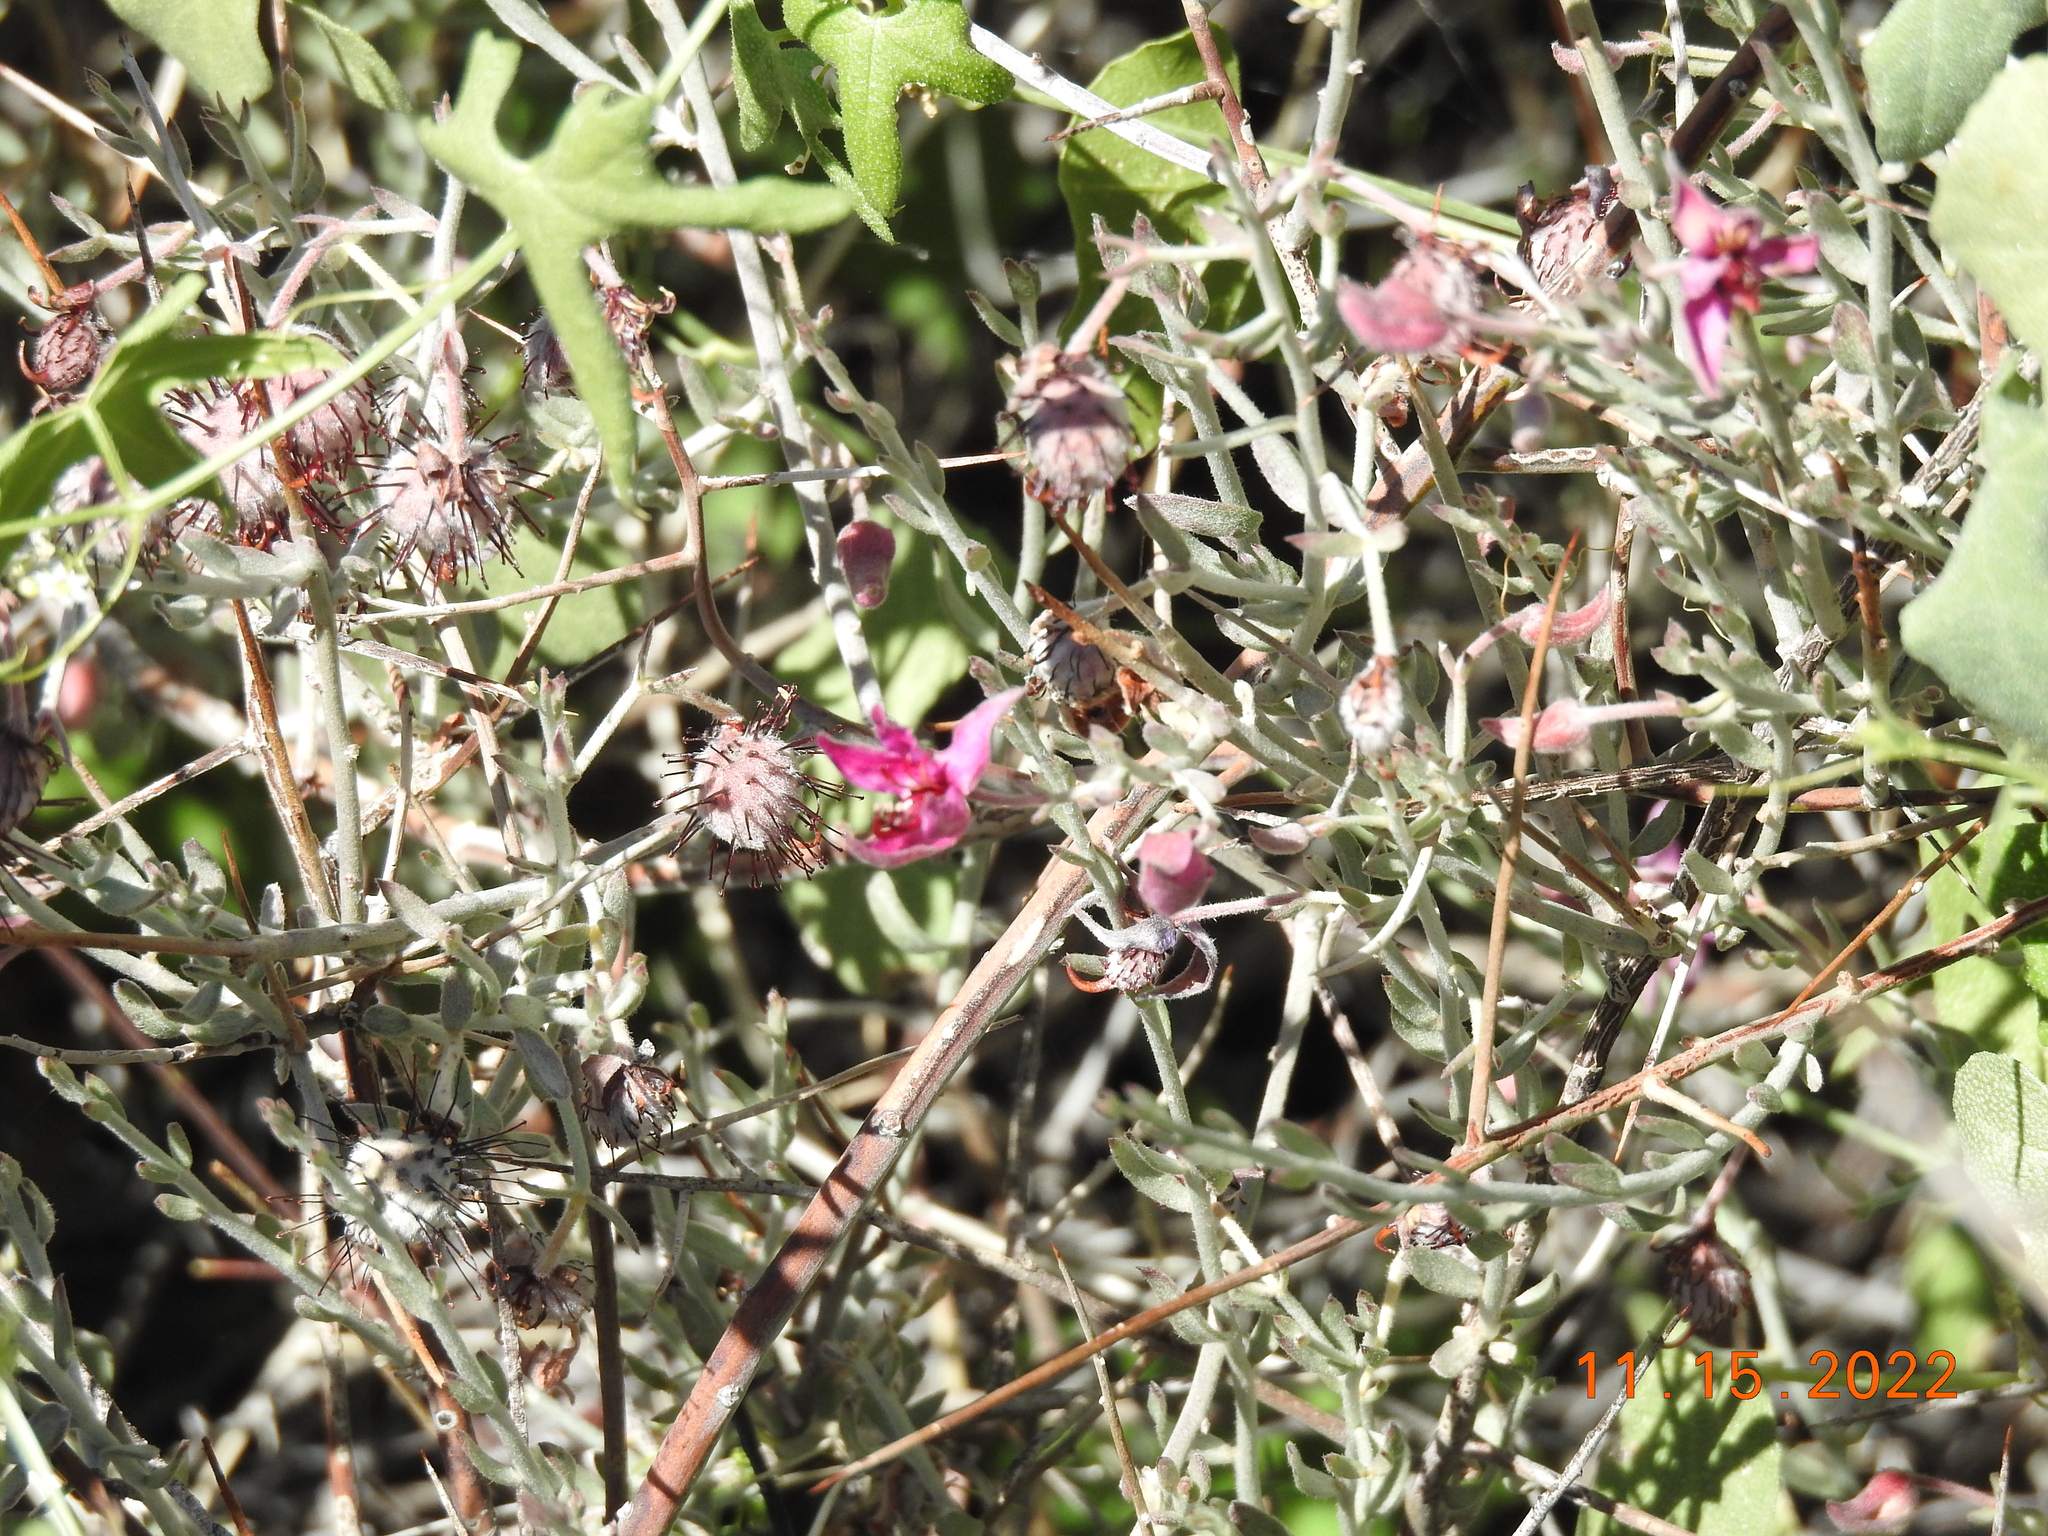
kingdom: Plantae
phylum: Tracheophyta
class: Magnoliopsida
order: Zygophyllales
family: Krameriaceae
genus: Krameria
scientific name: Krameria bicolor
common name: White ratany
